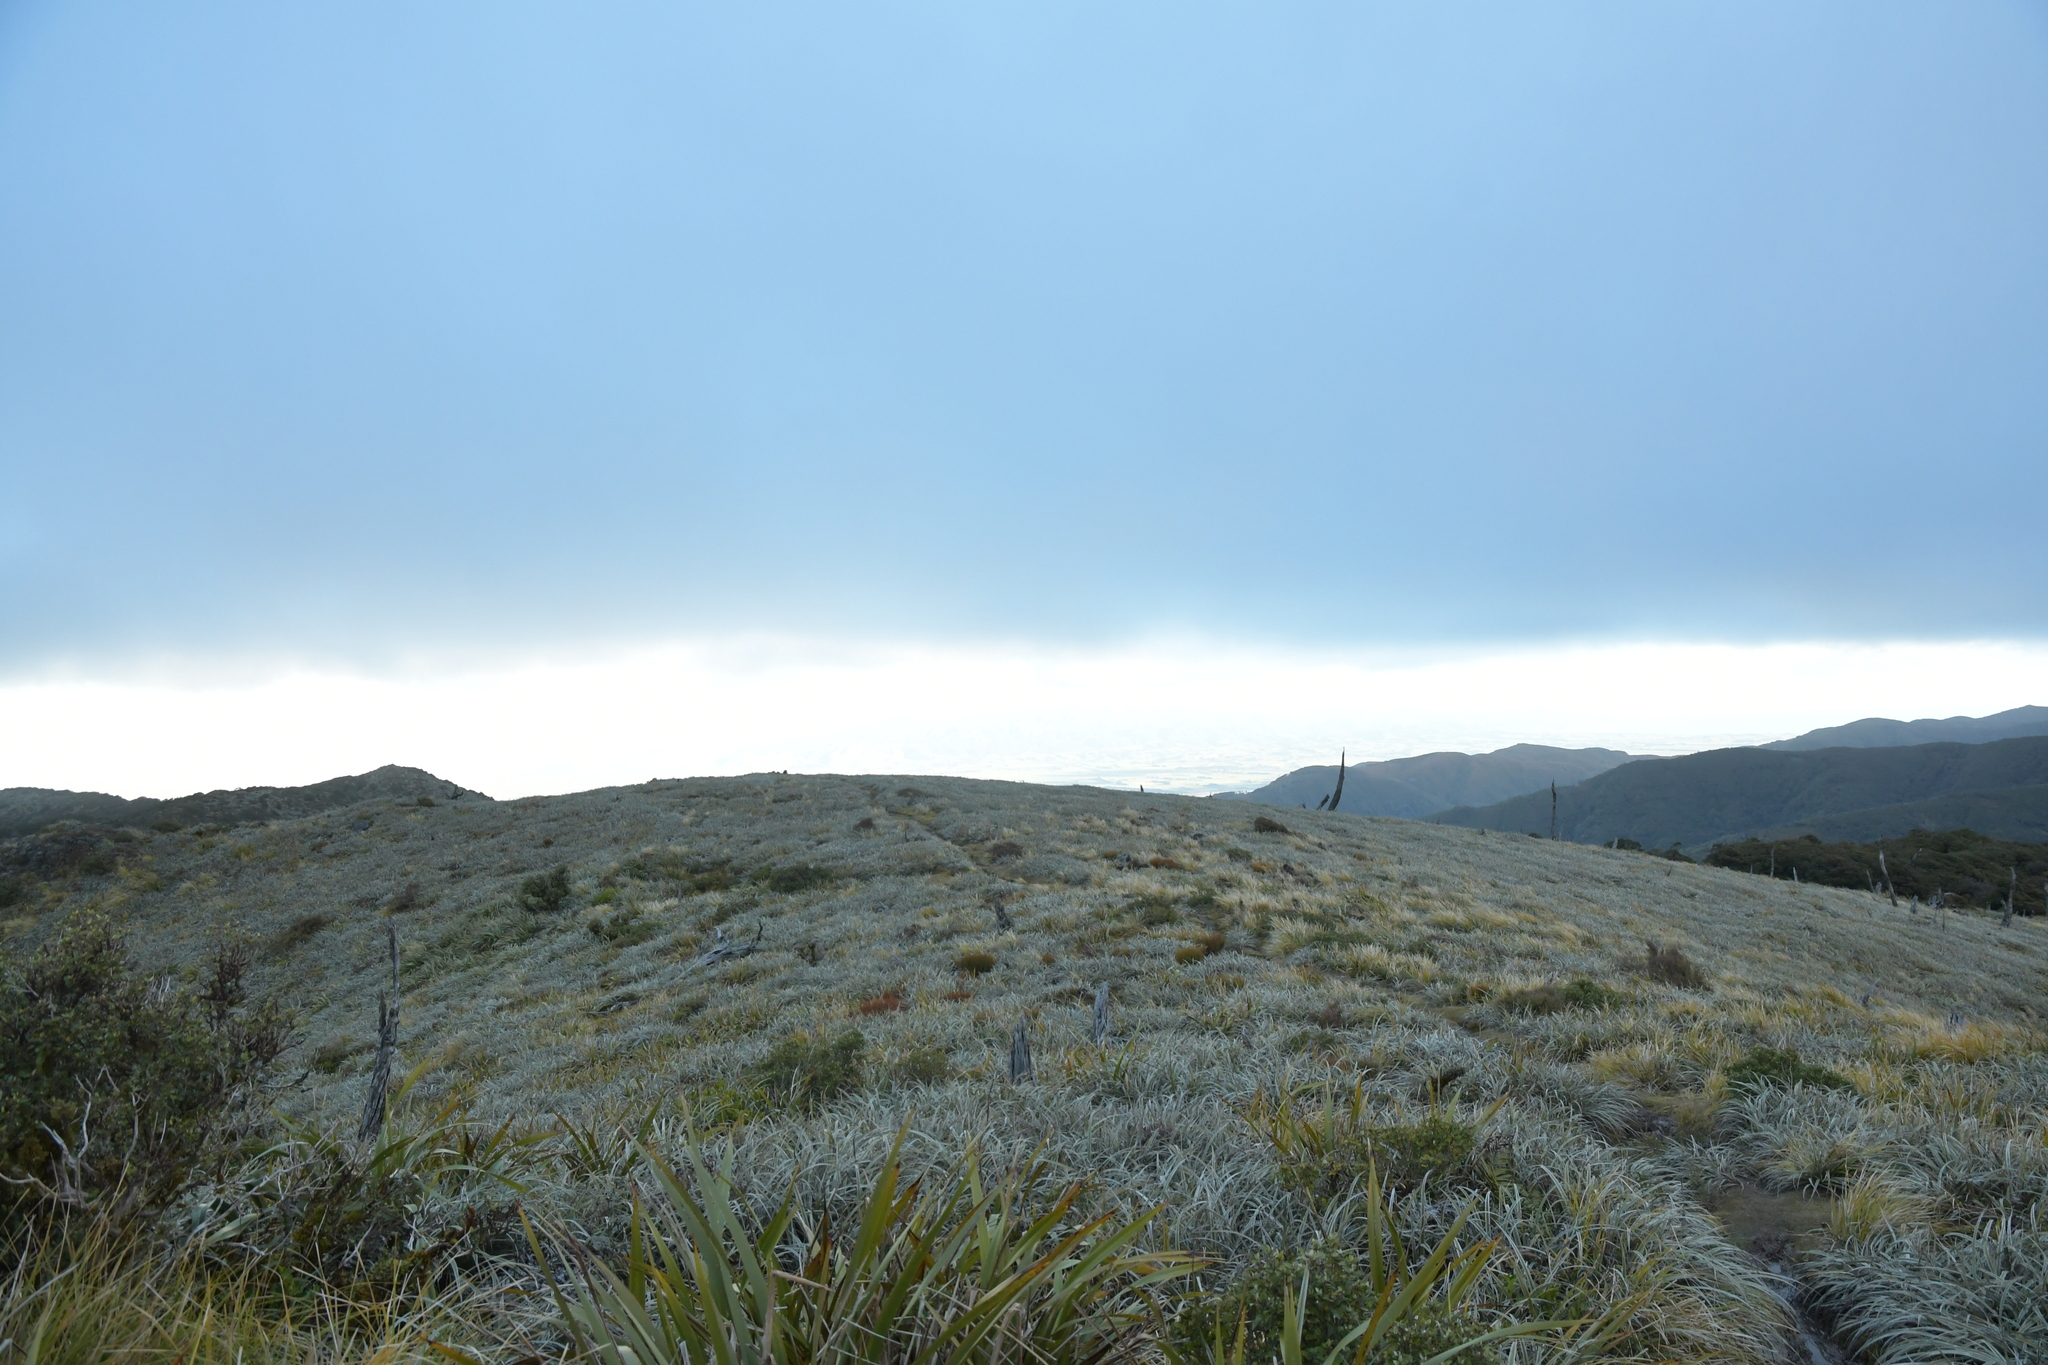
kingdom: Plantae
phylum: Tracheophyta
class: Liliopsida
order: Asparagales
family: Asteliaceae
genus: Astelia
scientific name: Astelia nervosa
